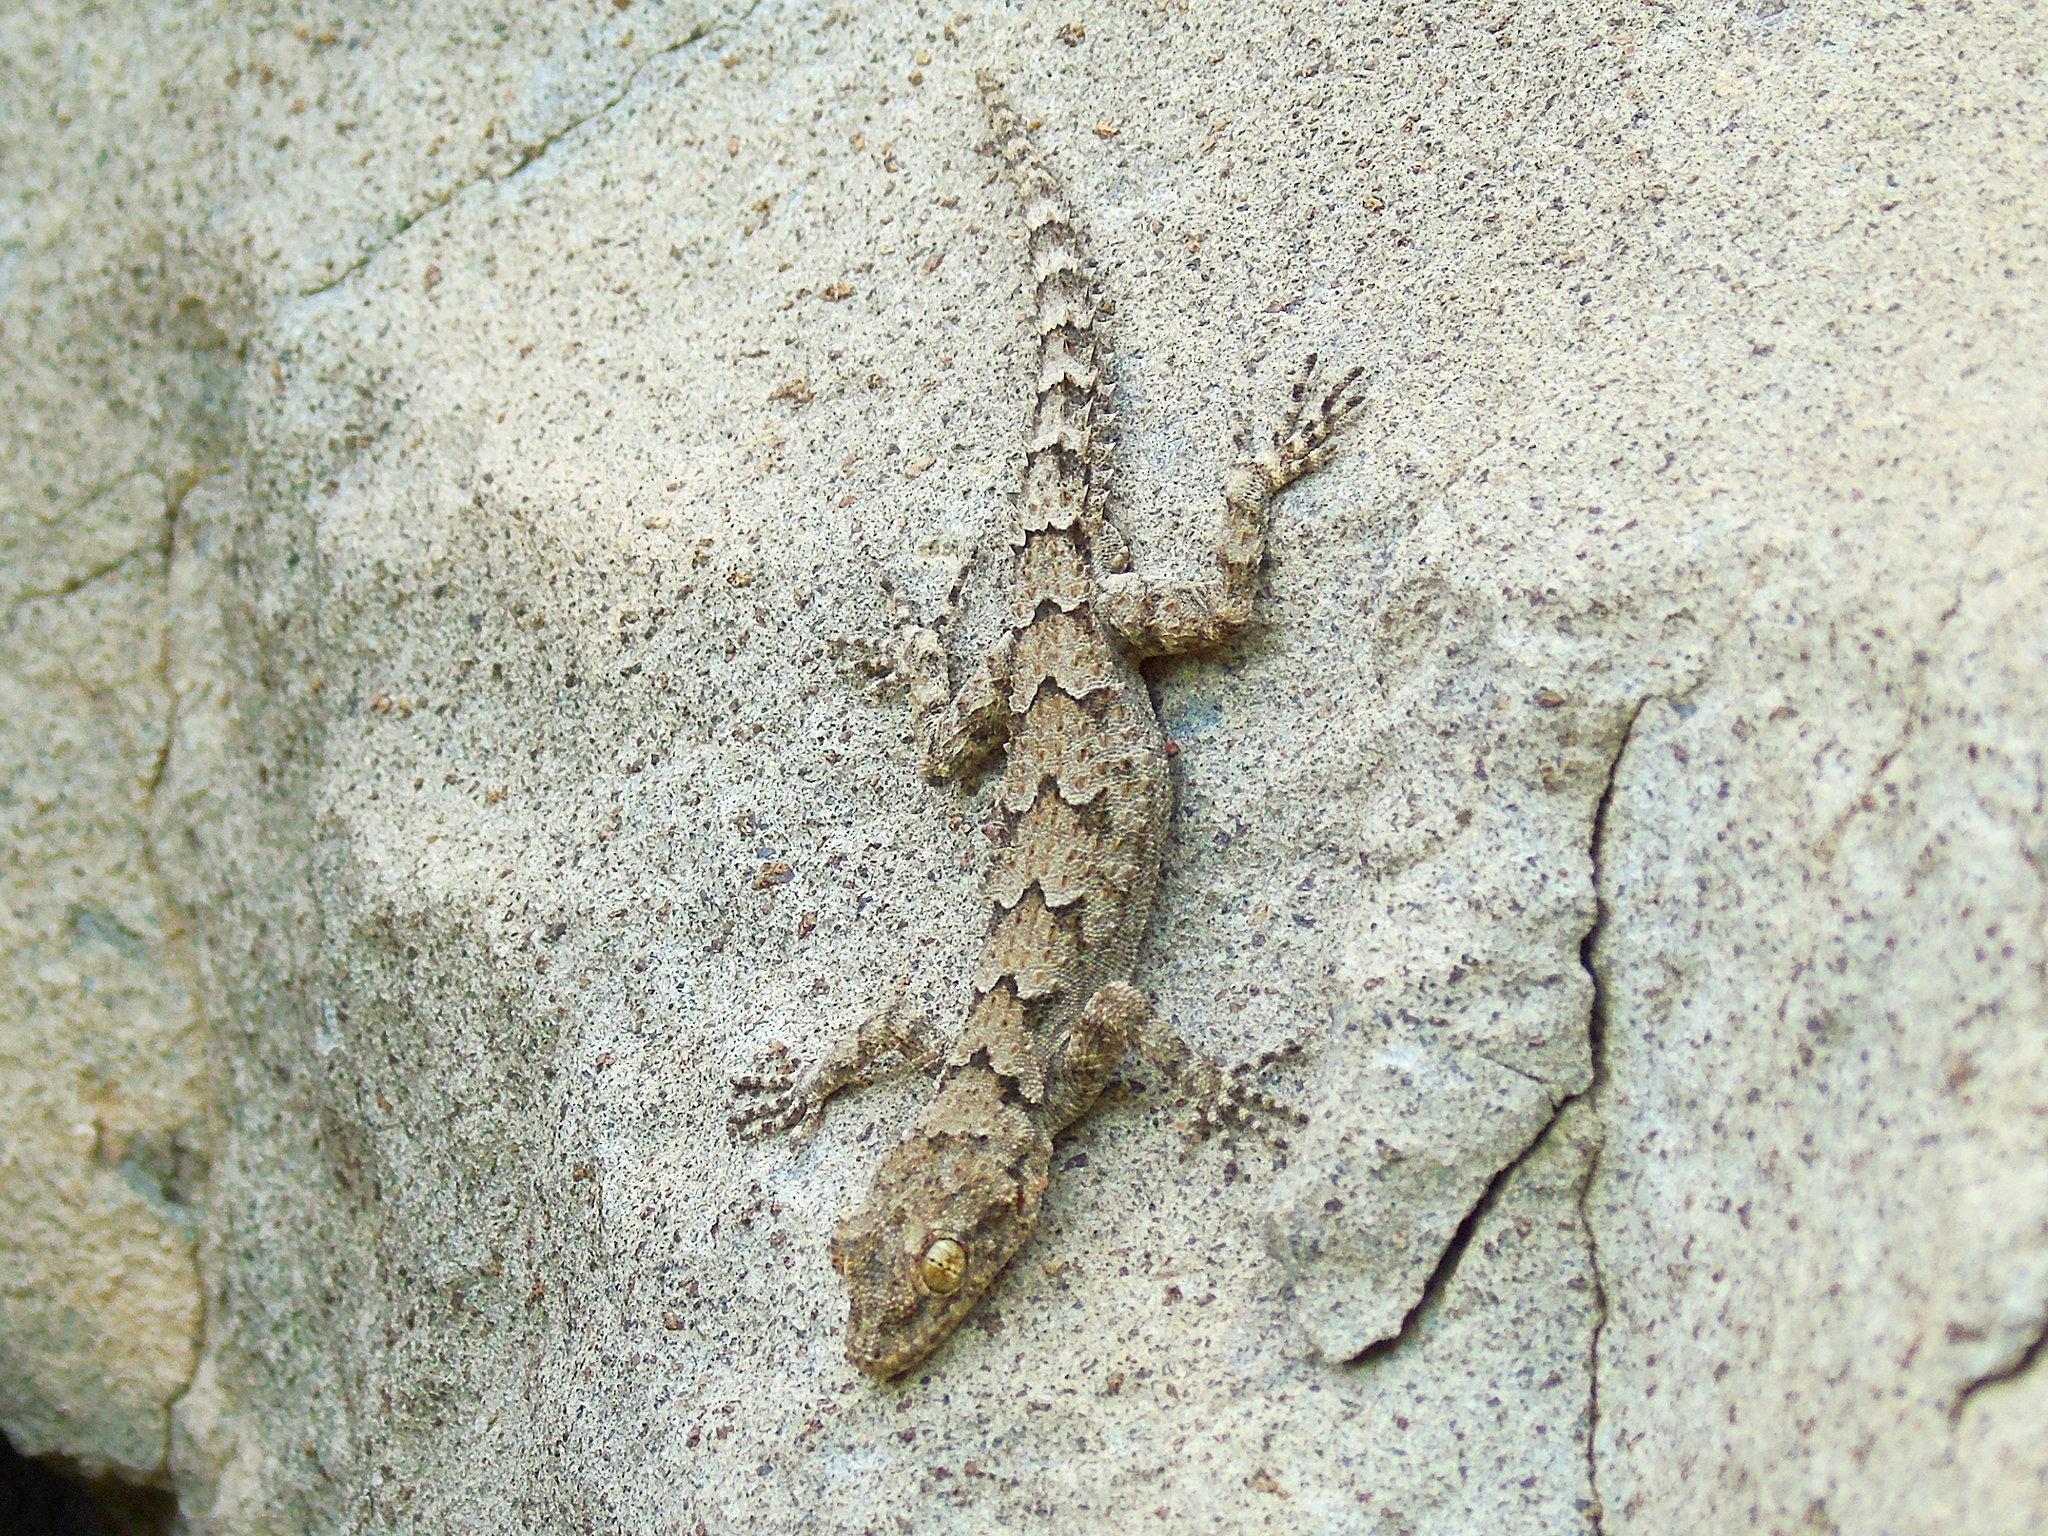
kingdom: Animalia
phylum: Chordata
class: Squamata
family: Gekkonidae
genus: Mediodactylus
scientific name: Mediodactylus heterocercus
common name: Asia minor thin-toed gecko
